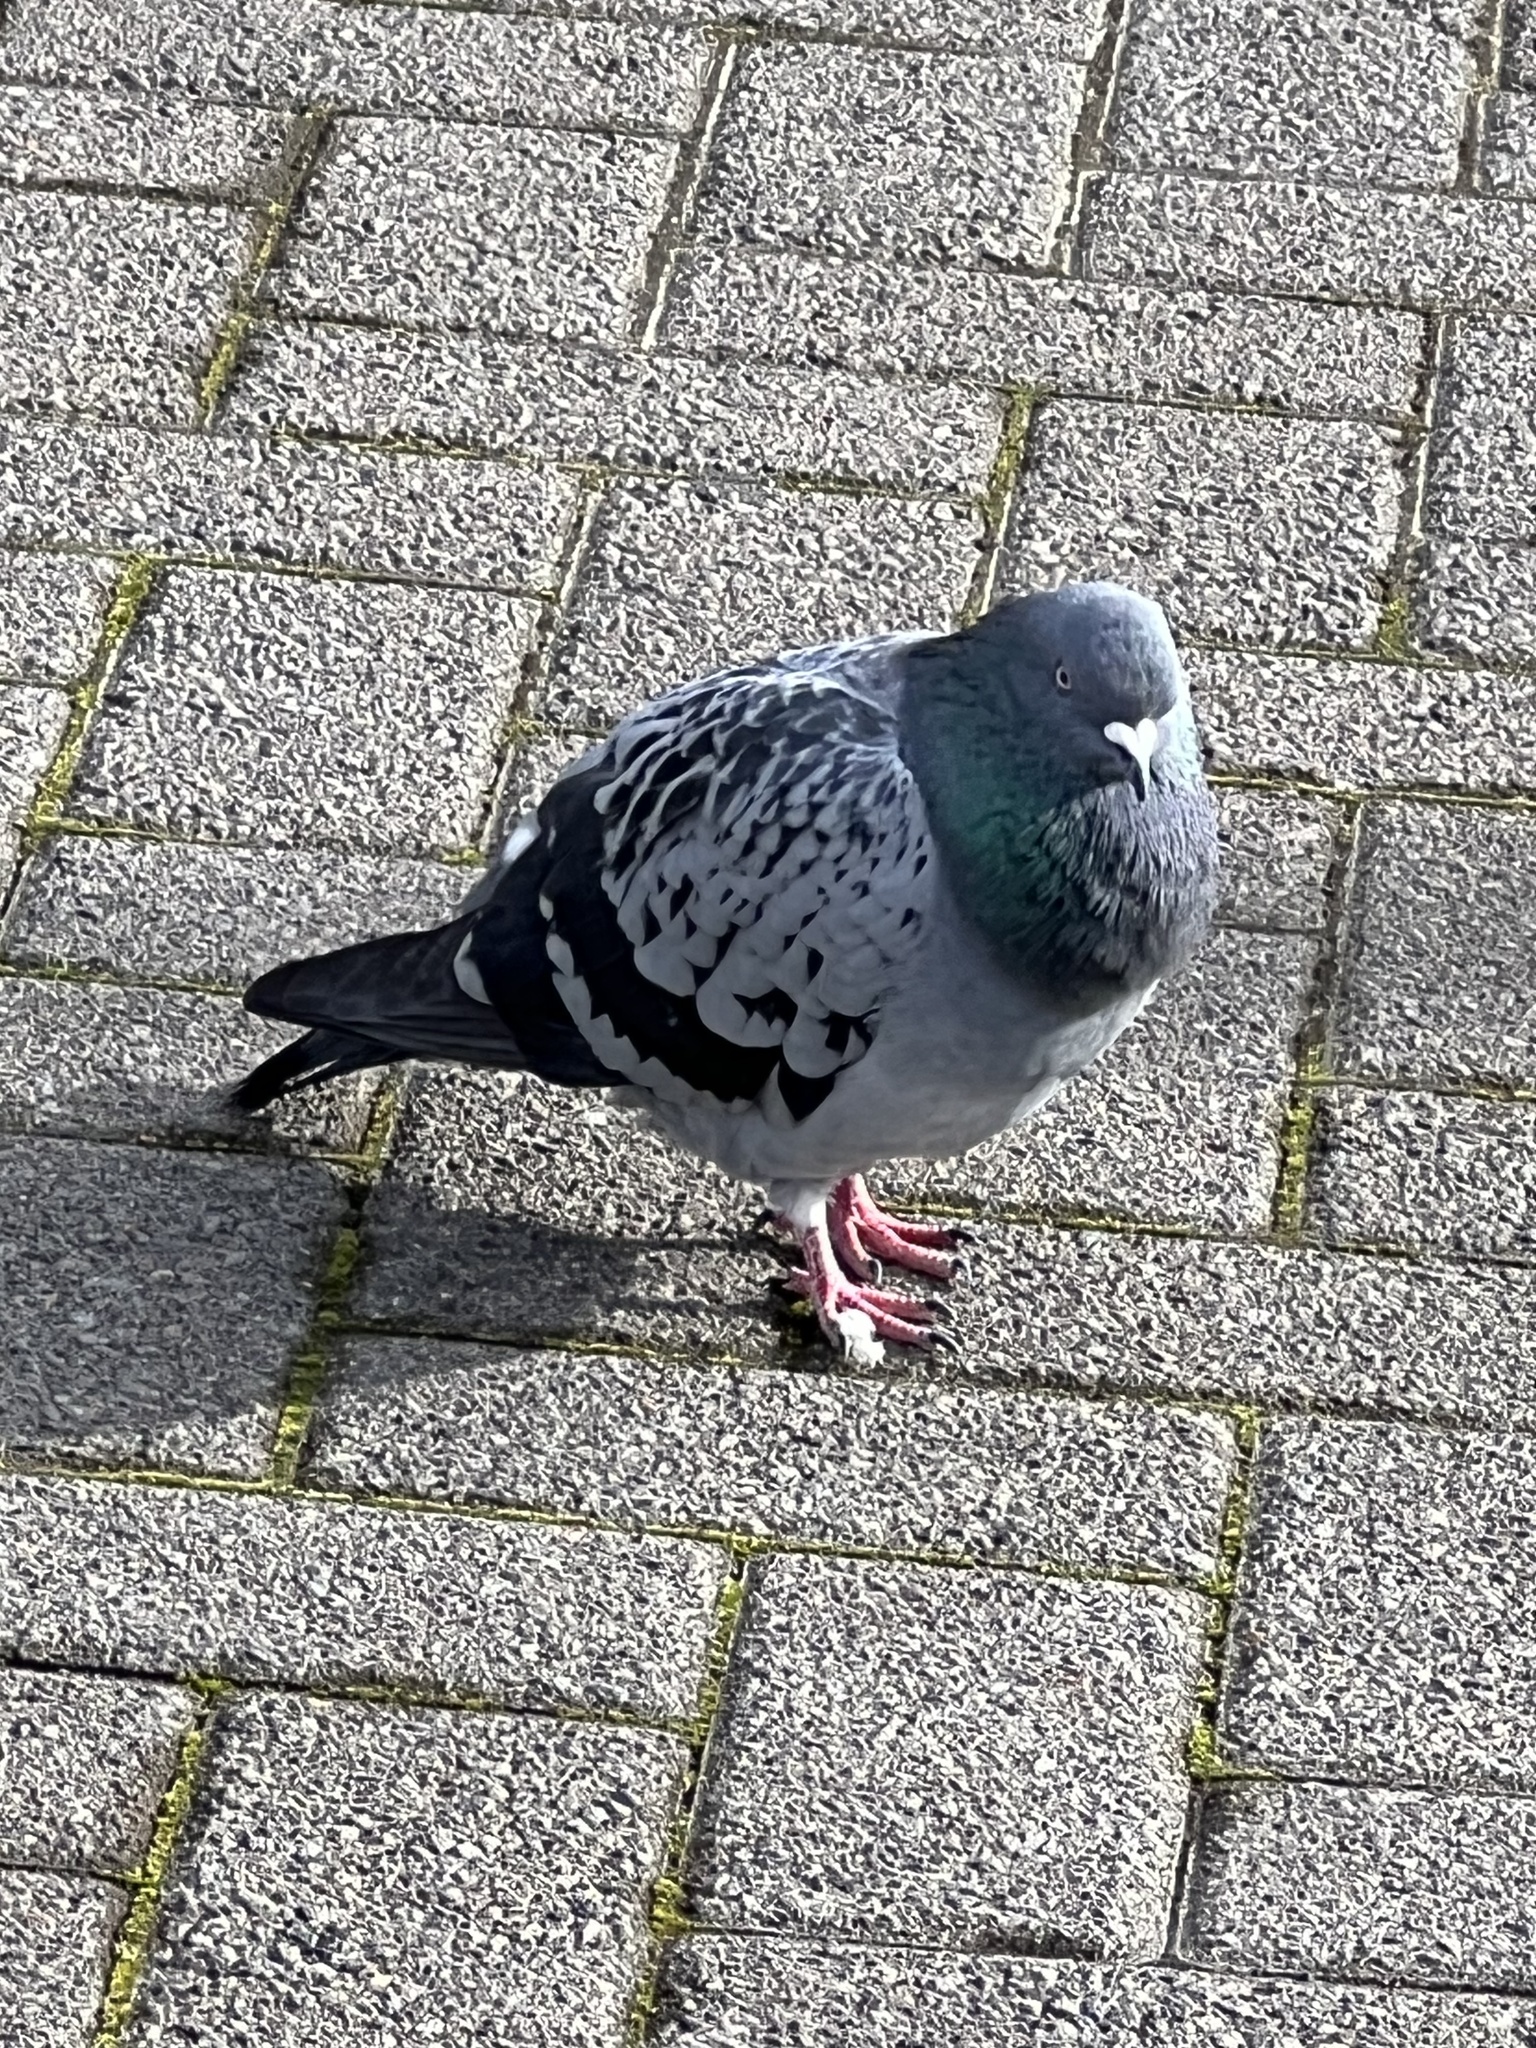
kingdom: Animalia
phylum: Chordata
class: Aves
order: Columbiformes
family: Columbidae
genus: Columba
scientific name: Columba livia
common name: Rock pigeon
